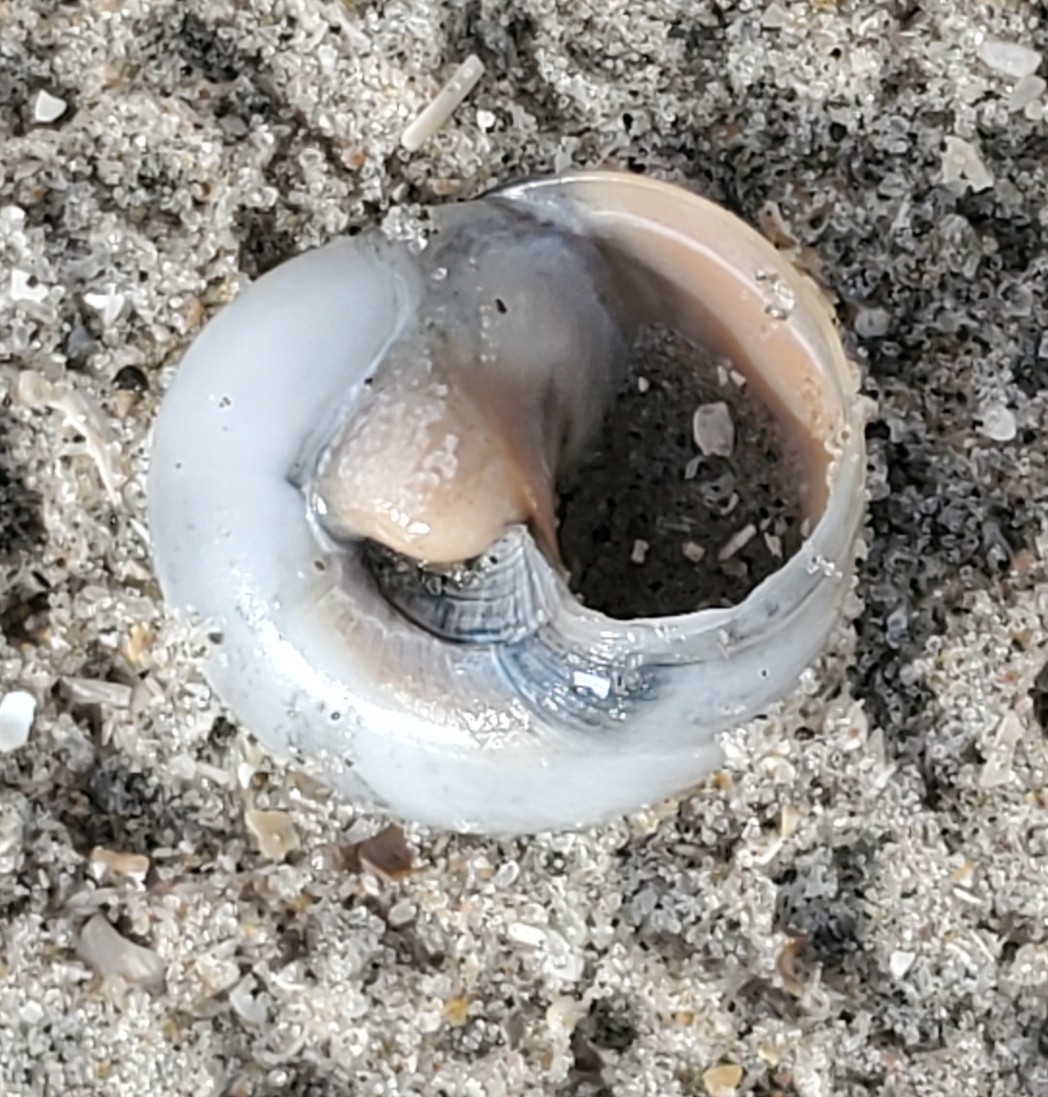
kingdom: Animalia
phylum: Mollusca
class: Gastropoda
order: Littorinimorpha
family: Naticidae
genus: Neverita
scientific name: Neverita delessertiana
